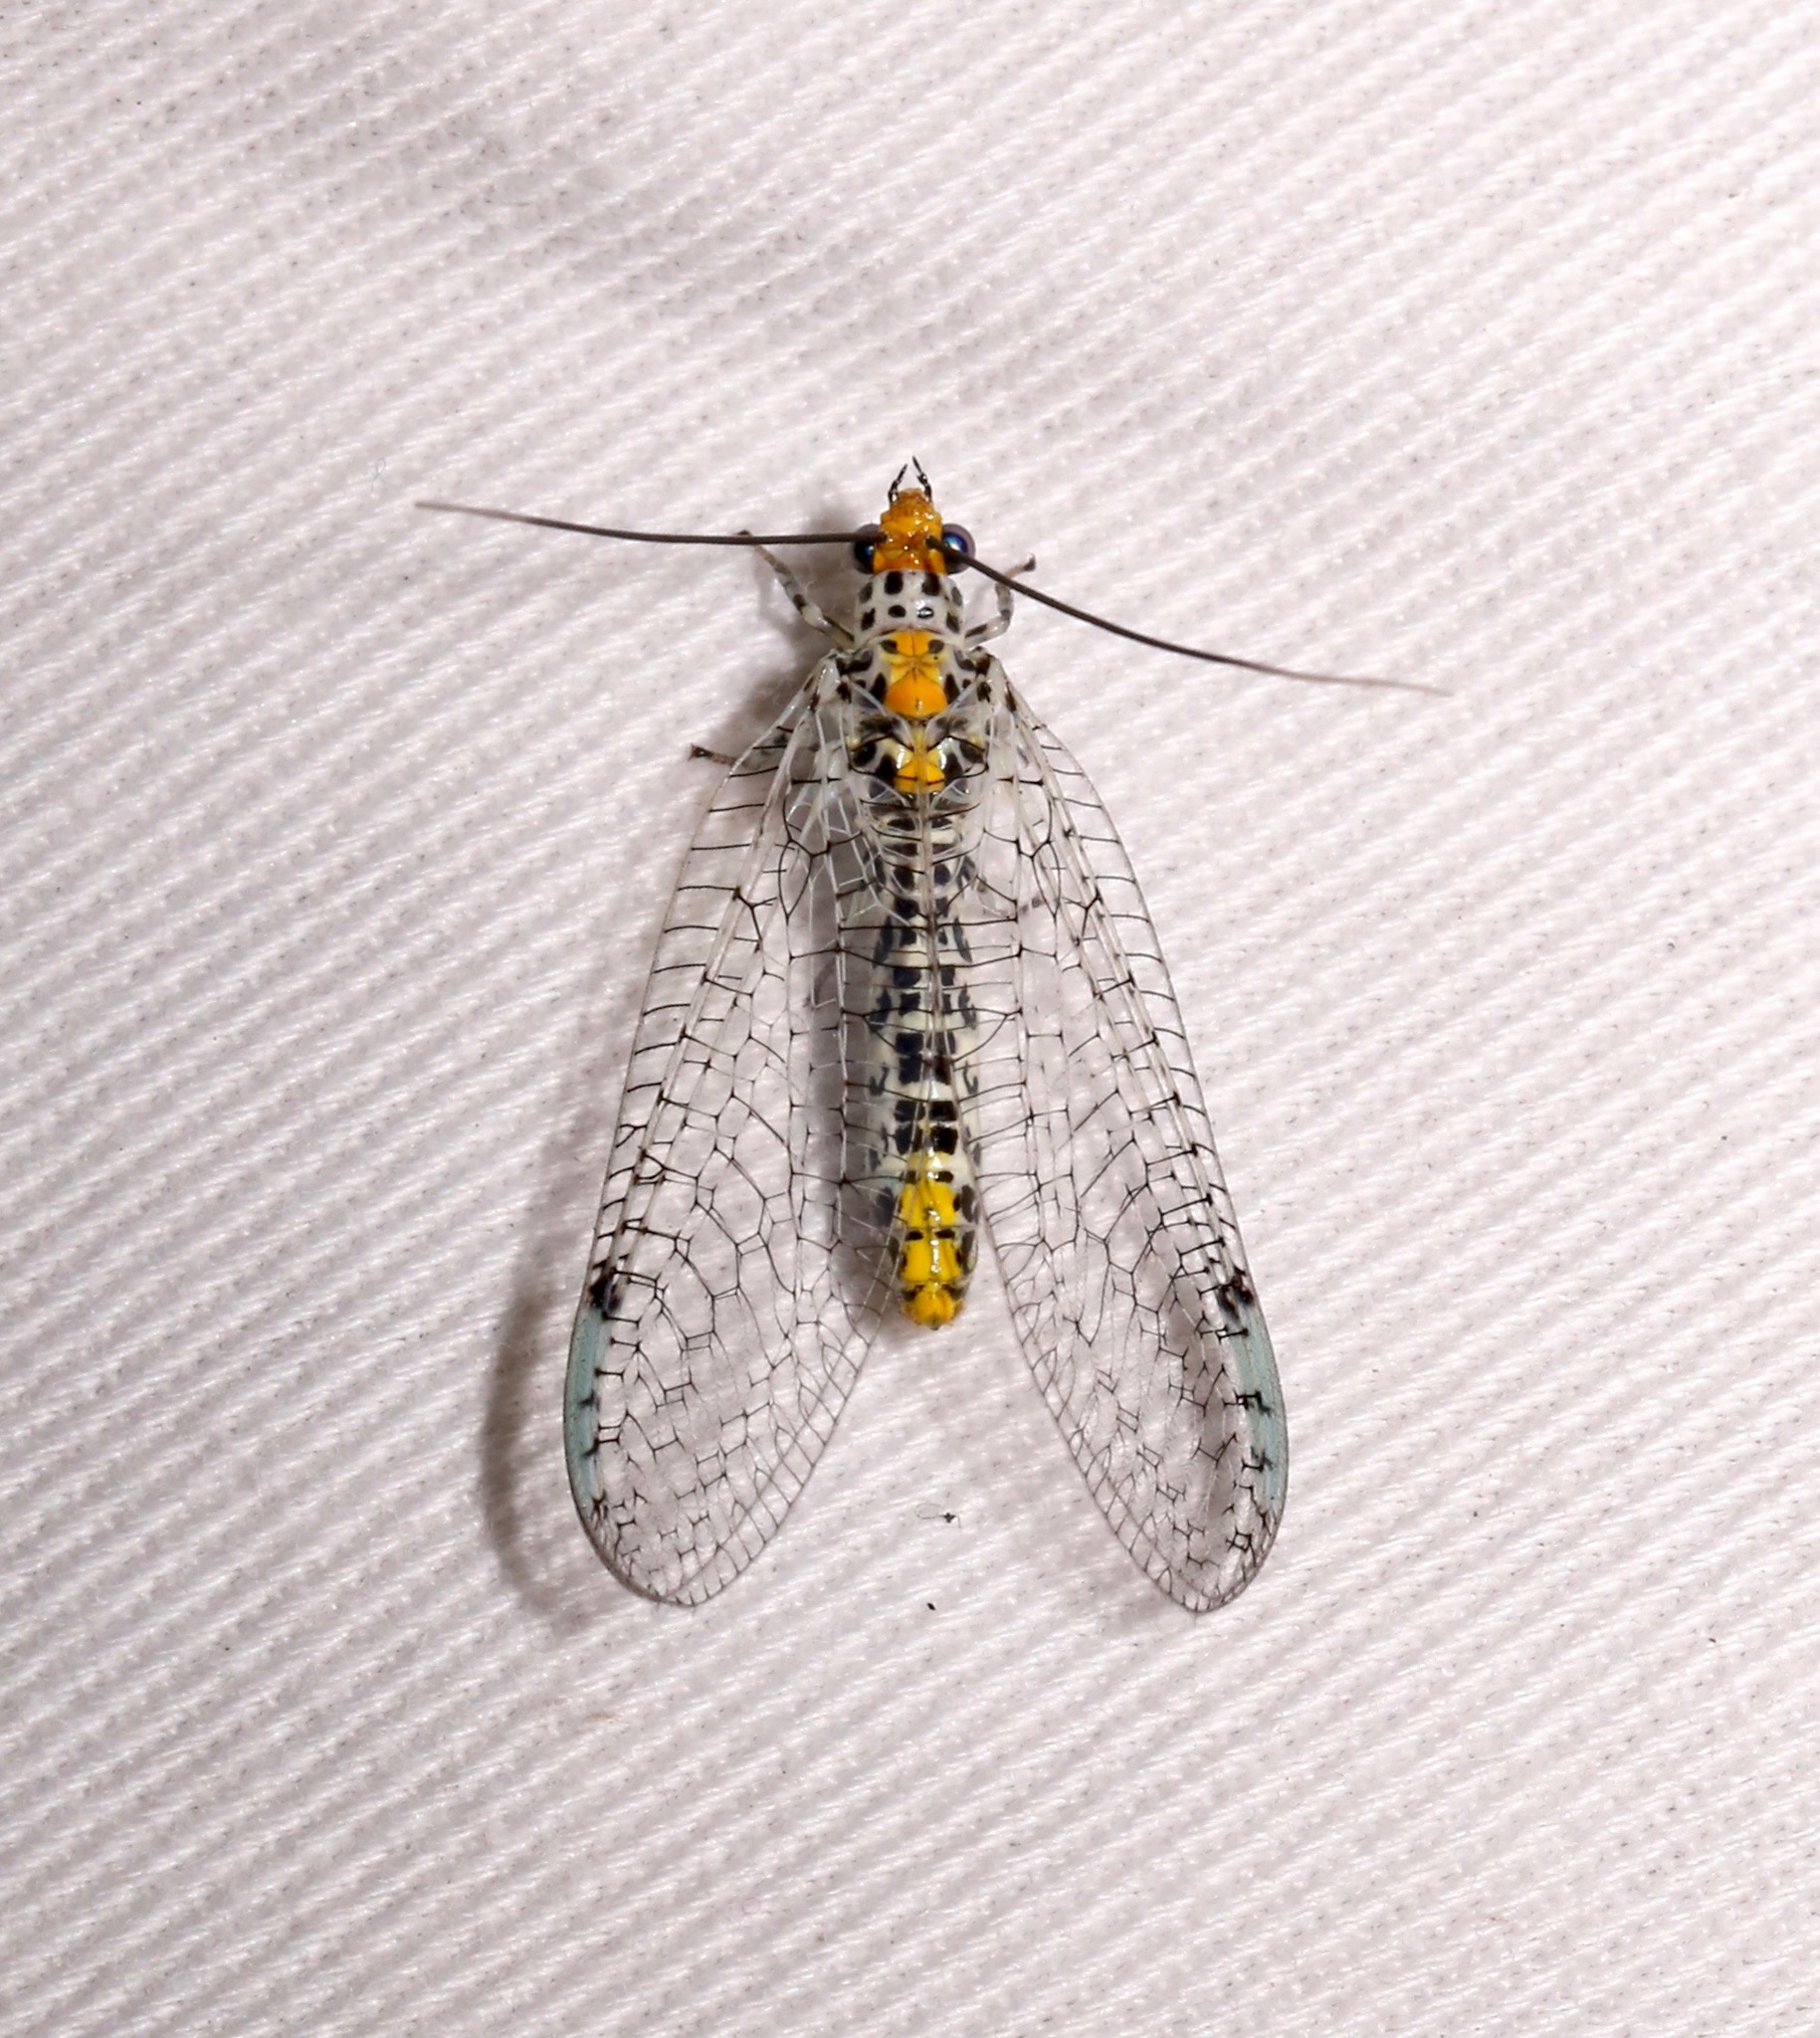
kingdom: Animalia
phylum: Arthropoda
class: Insecta
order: Neuroptera
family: Chrysopidae
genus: Abachrysa
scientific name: Abachrysa eureka
